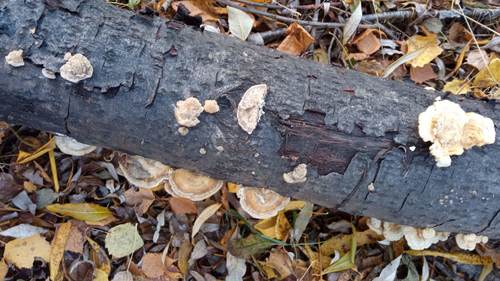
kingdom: Fungi
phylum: Basidiomycota
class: Agaricomycetes
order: Polyporales
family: Polyporaceae
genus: Trametes
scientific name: Trametes ochracea
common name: Ochre bracket
